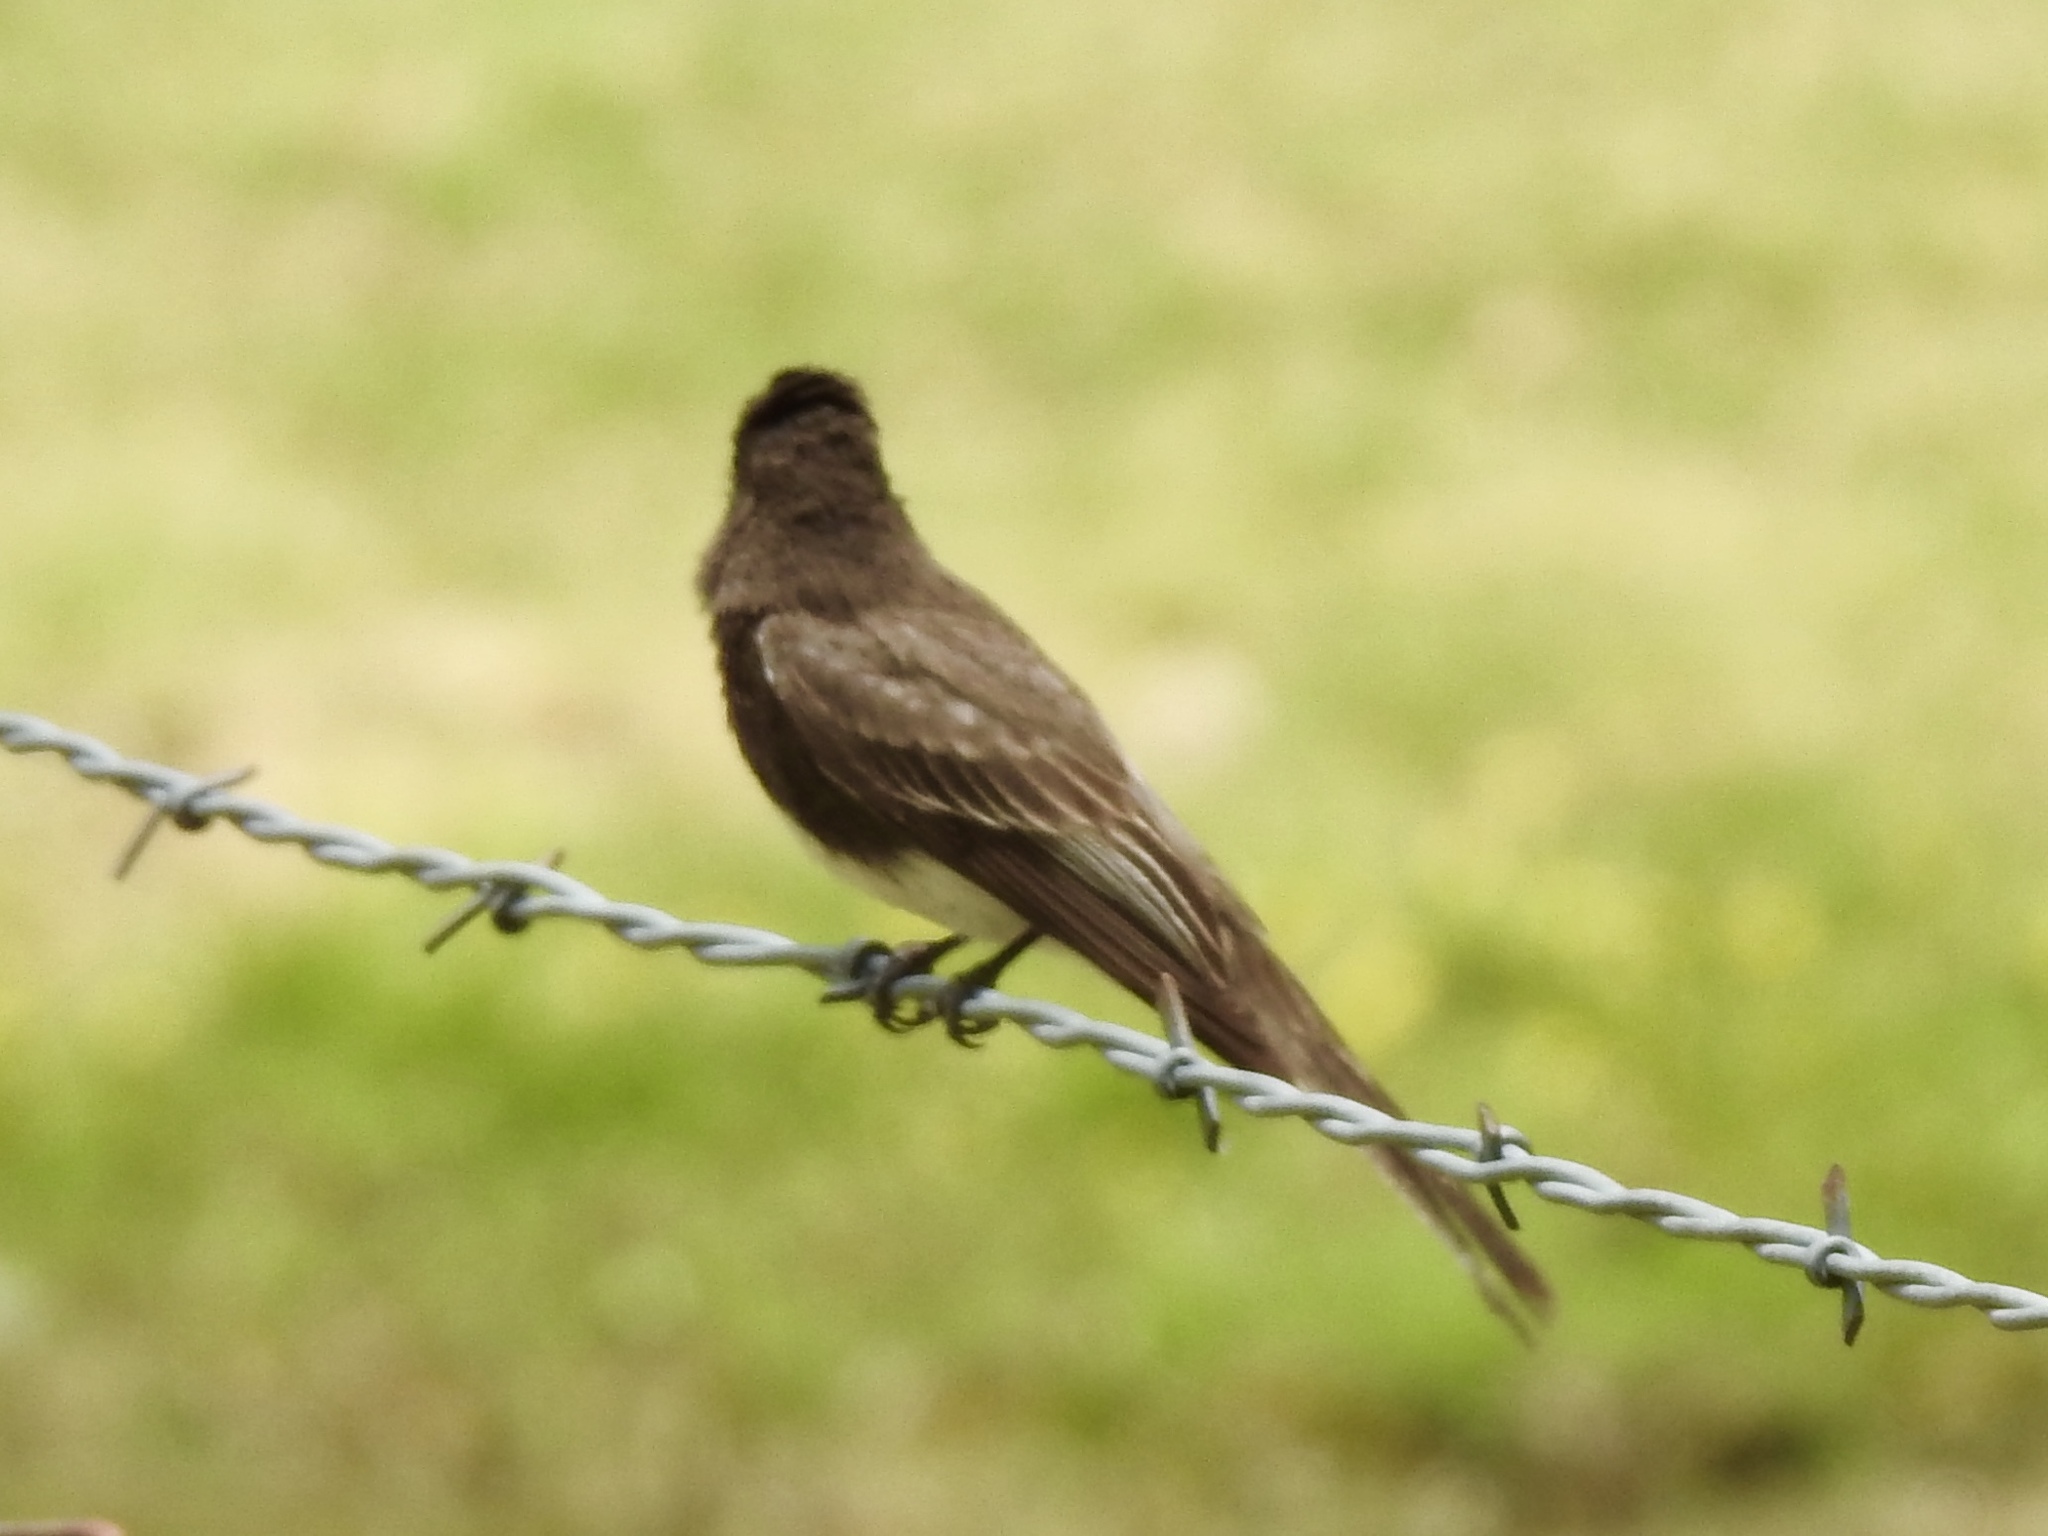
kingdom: Animalia
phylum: Chordata
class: Aves
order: Passeriformes
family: Tyrannidae
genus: Sayornis
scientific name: Sayornis nigricans
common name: Black phoebe
